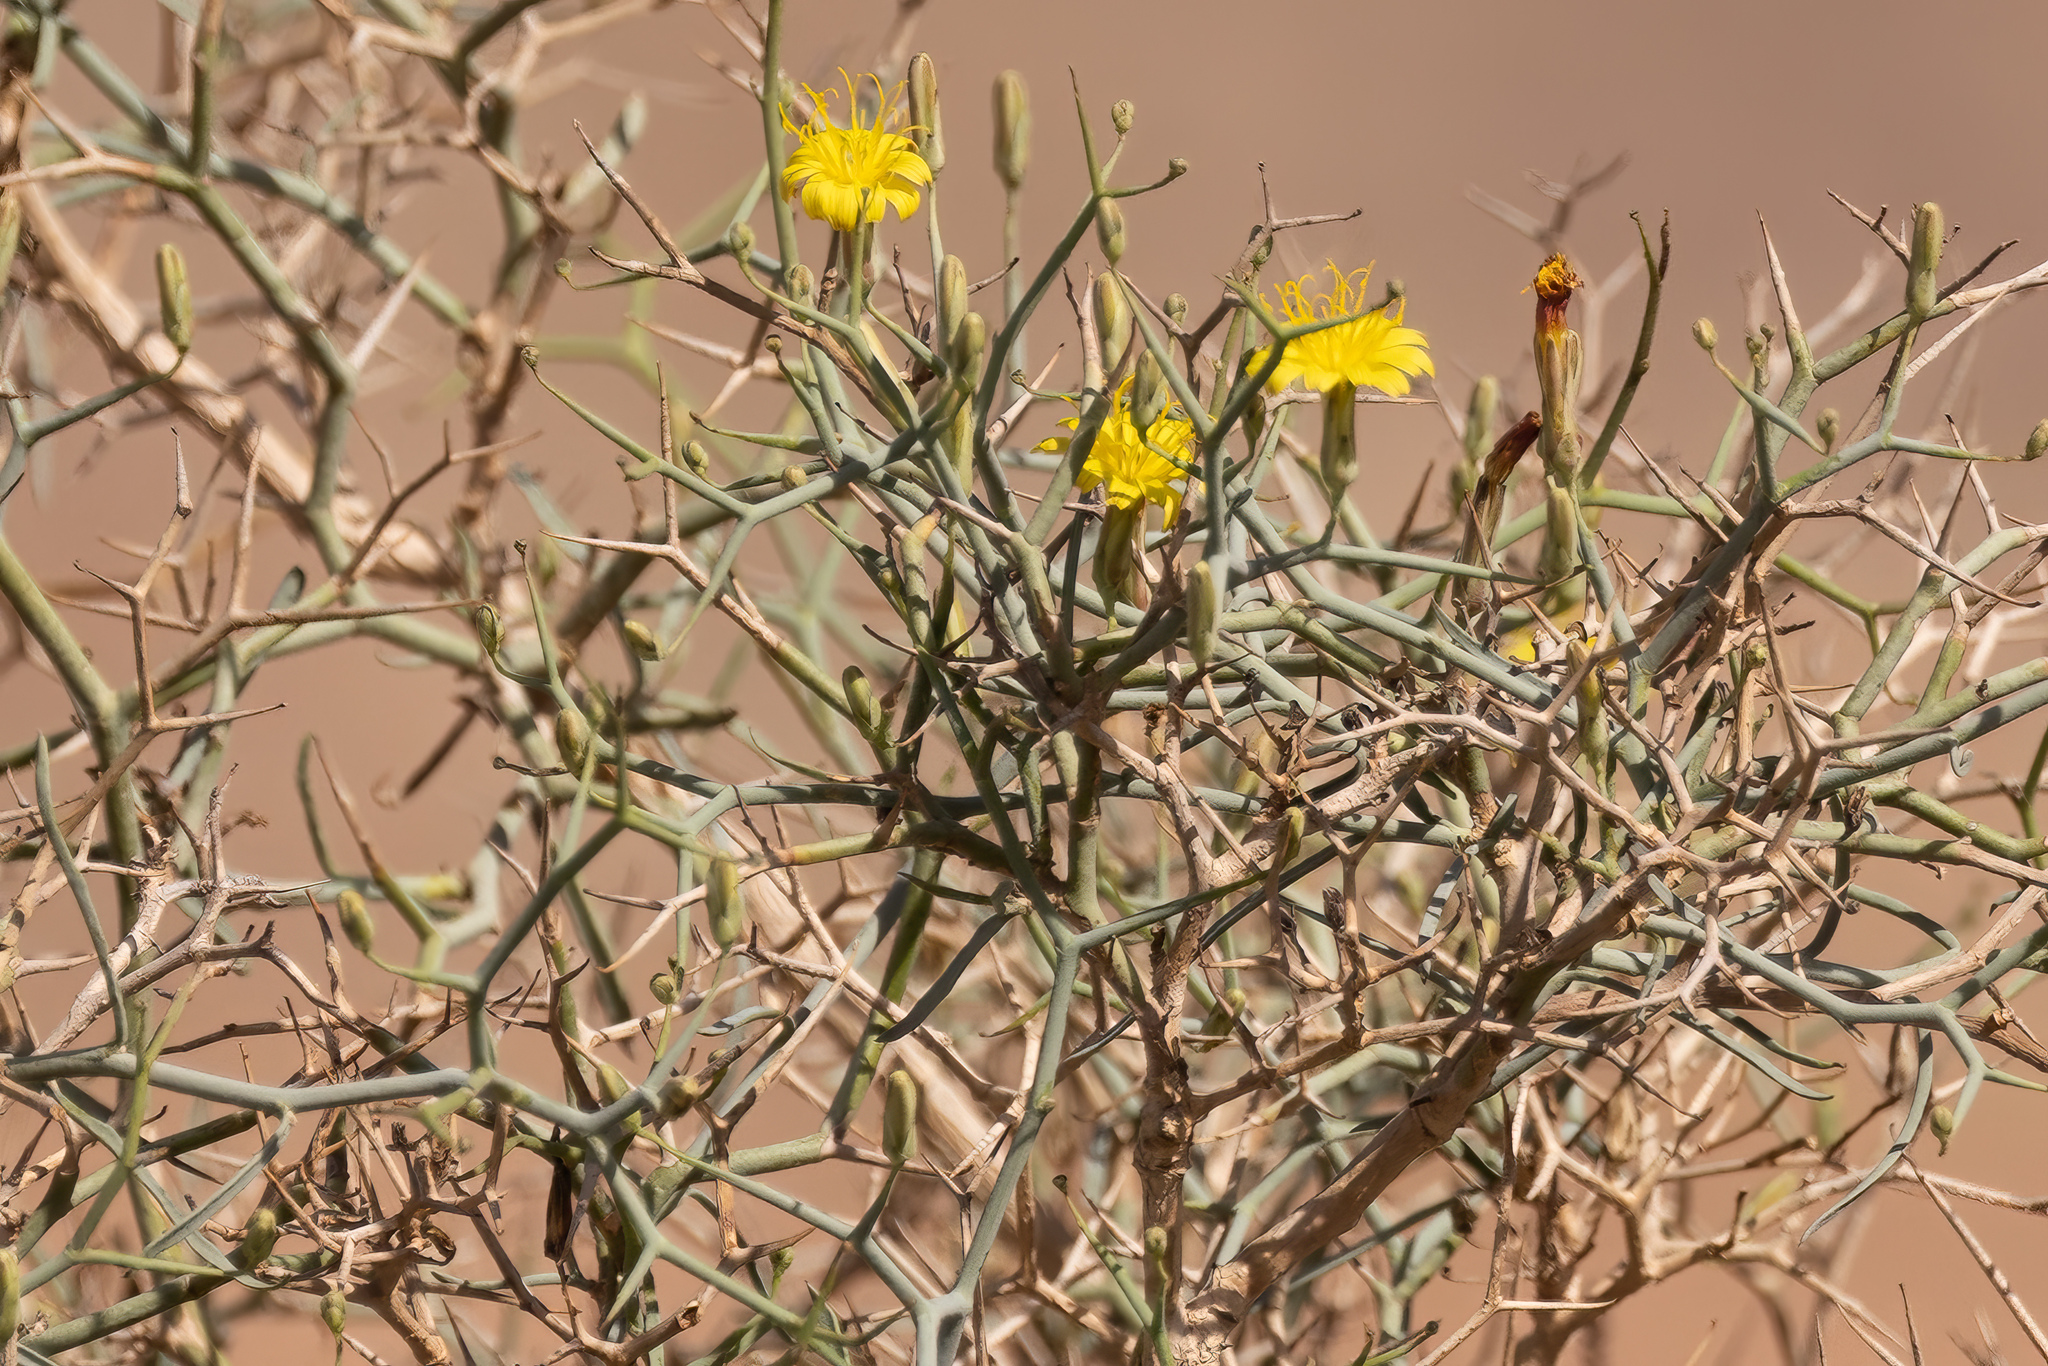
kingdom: Plantae
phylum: Tracheophyta
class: Magnoliopsida
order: Asterales
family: Asteraceae
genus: Launaea
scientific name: Launaea arborescens
